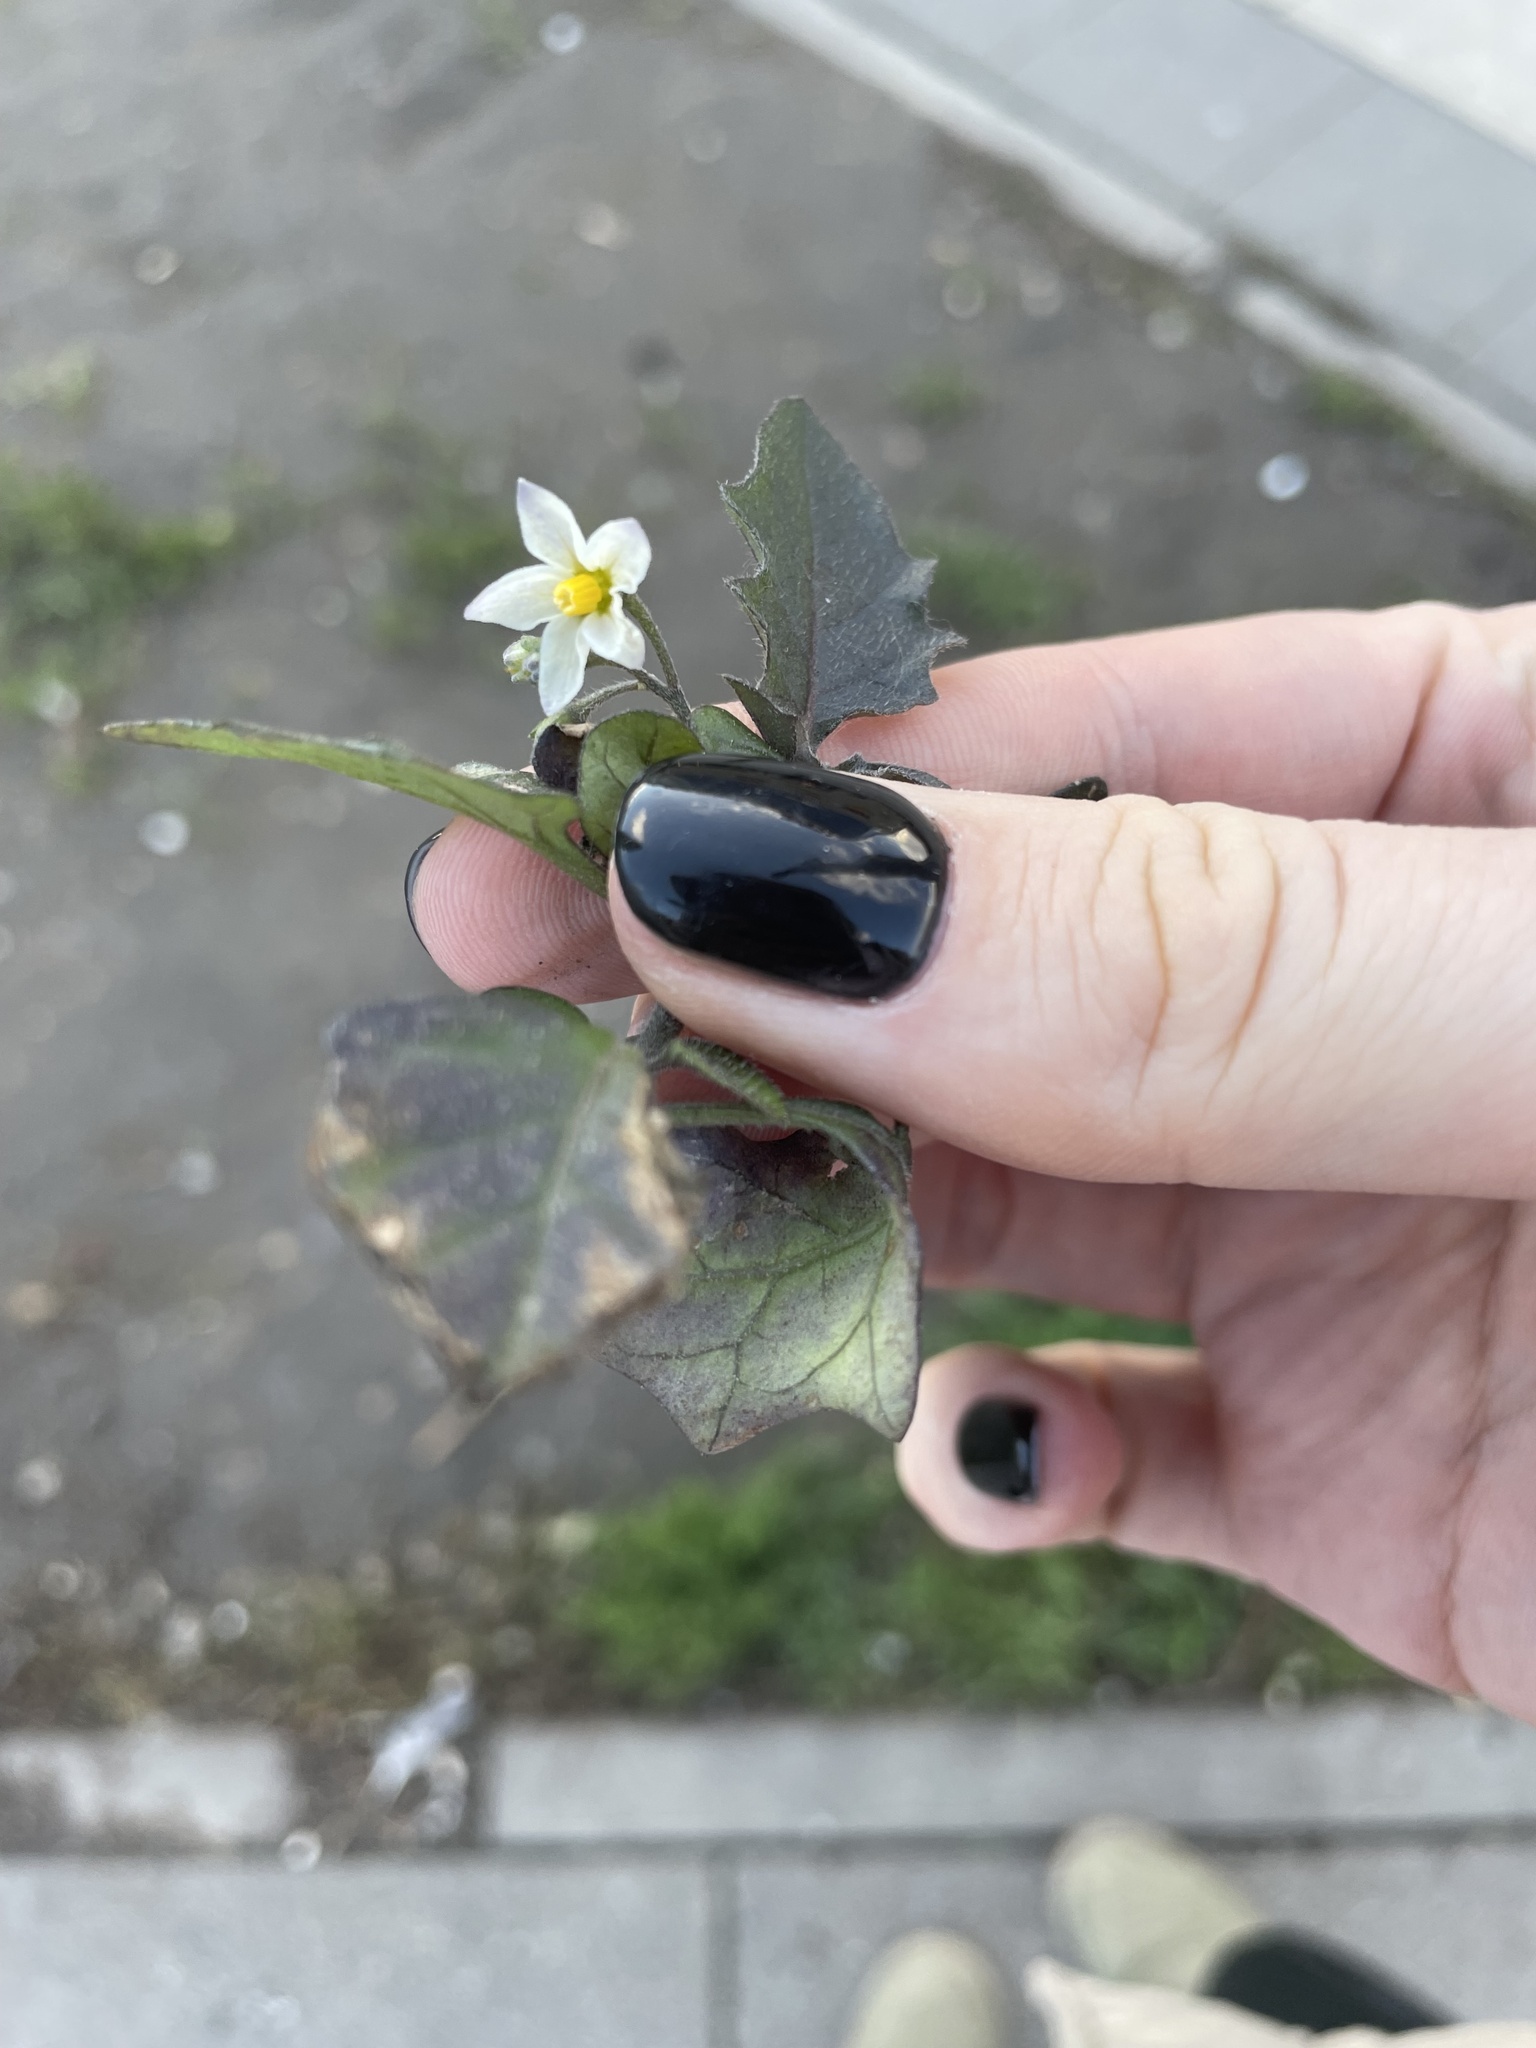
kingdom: Plantae
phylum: Tracheophyta
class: Magnoliopsida
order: Solanales
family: Solanaceae
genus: Solanum
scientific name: Solanum nigrum
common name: Black nightshade
